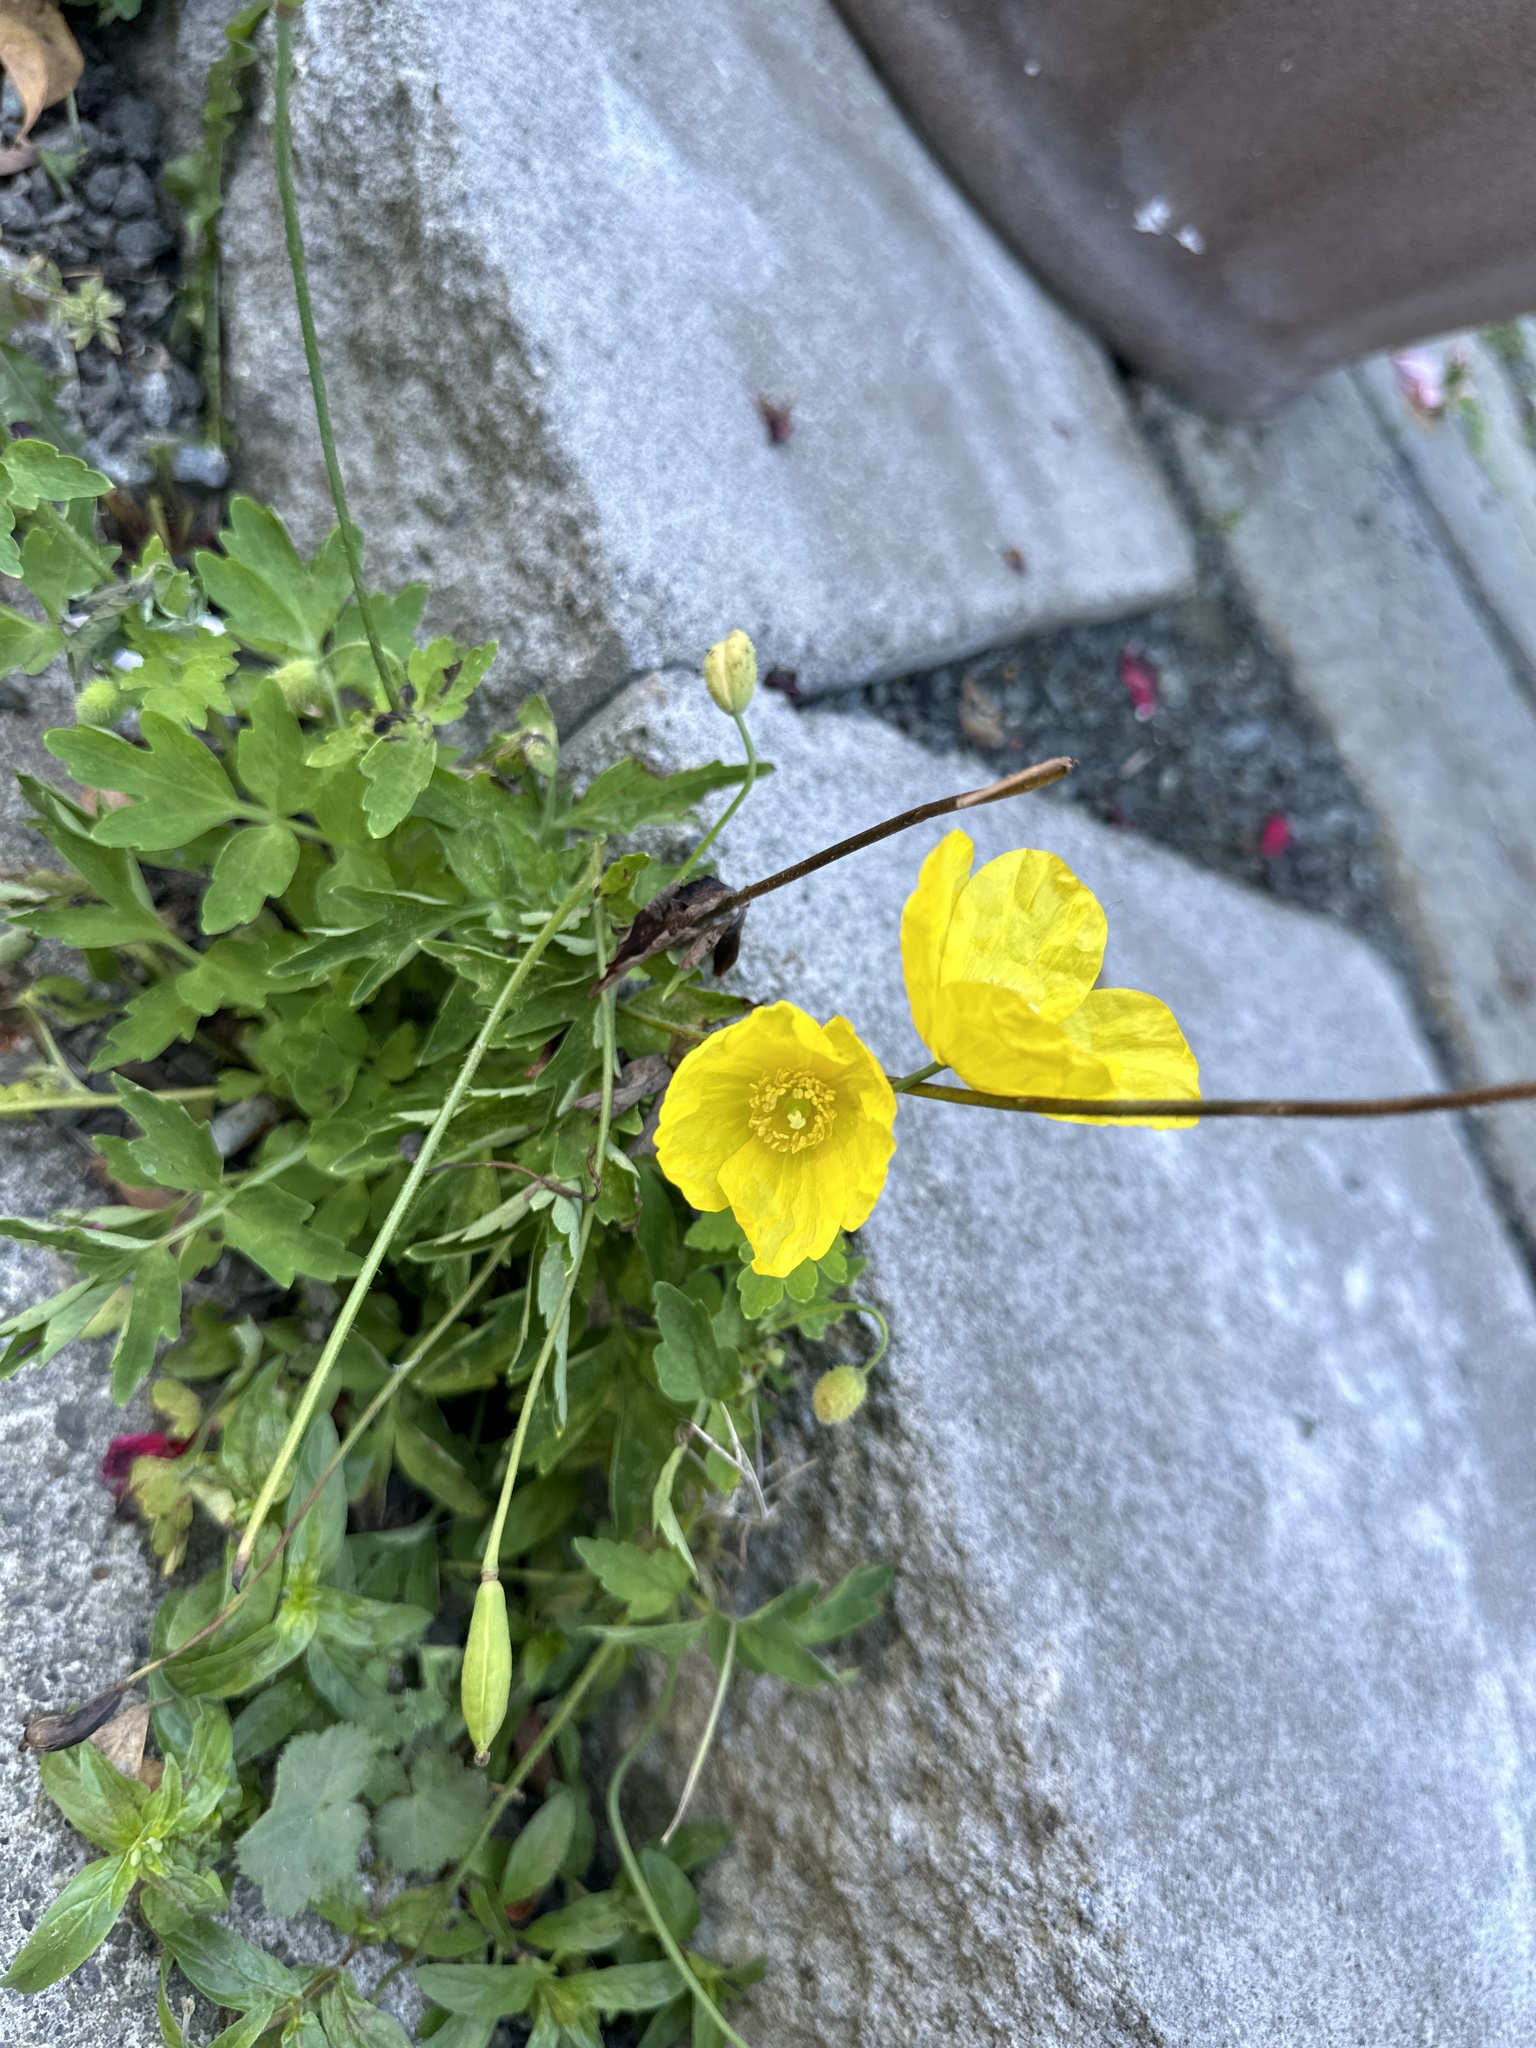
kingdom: Plantae
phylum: Tracheophyta
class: Magnoliopsida
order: Ranunculales
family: Papaveraceae
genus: Papaver
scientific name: Papaver cambricum
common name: Poppy
